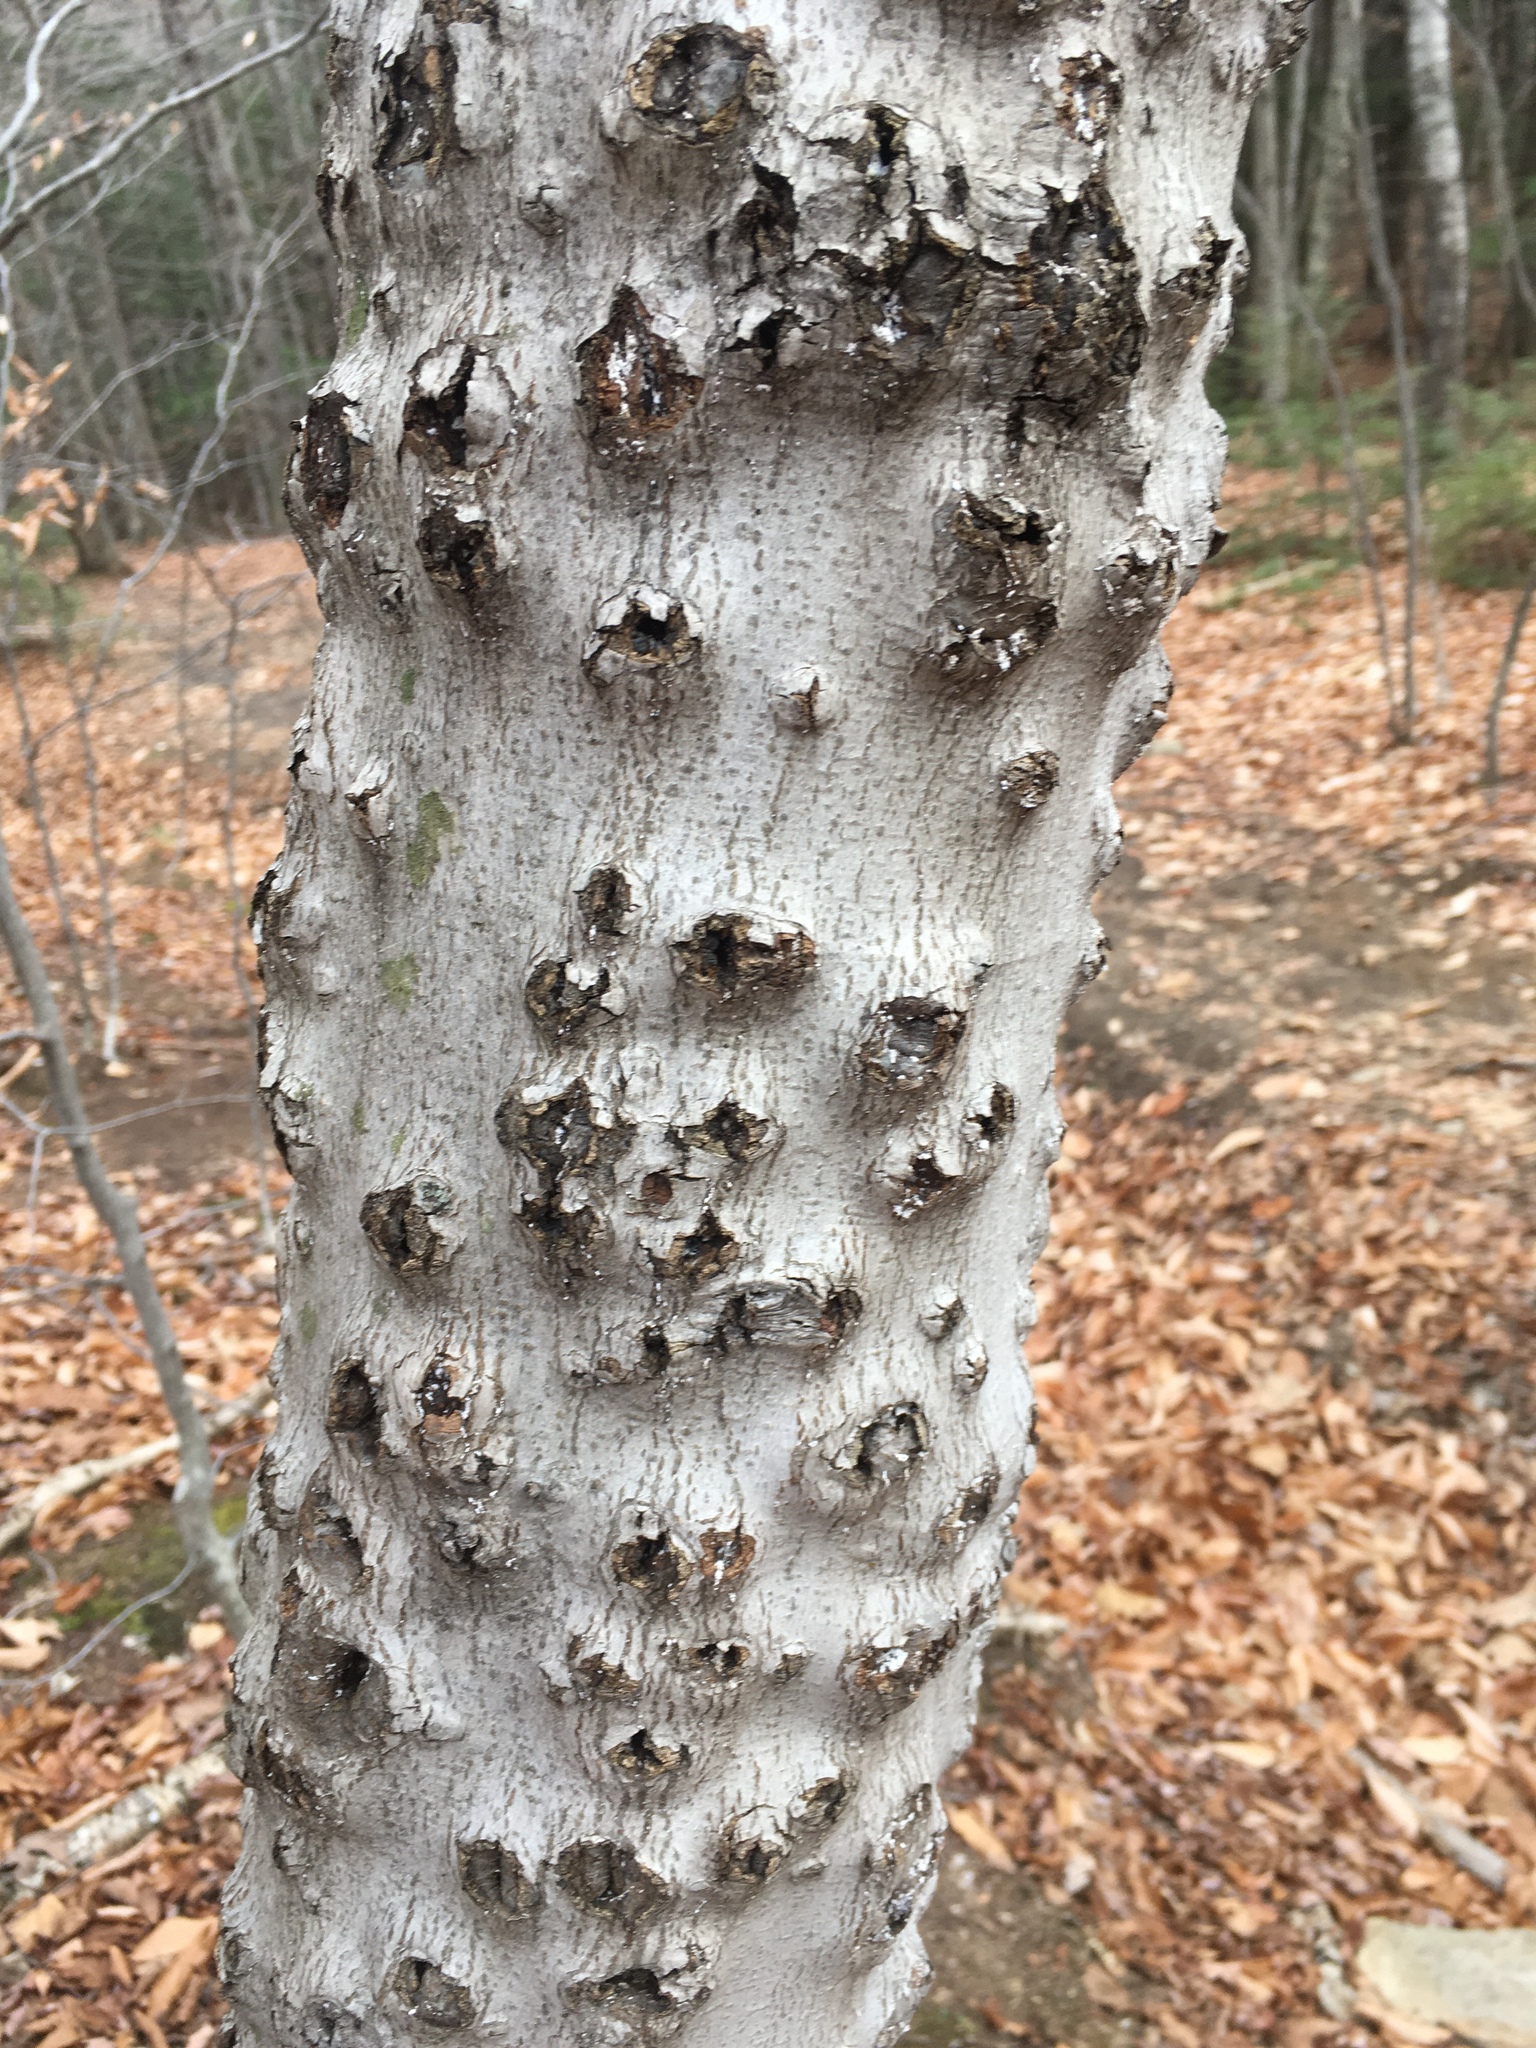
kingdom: Fungi
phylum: Ascomycota
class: Sordariomycetes
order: Hypocreales
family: Nectriaceae
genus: Neonectria
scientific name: Neonectria faginata
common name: Beech bark canker
